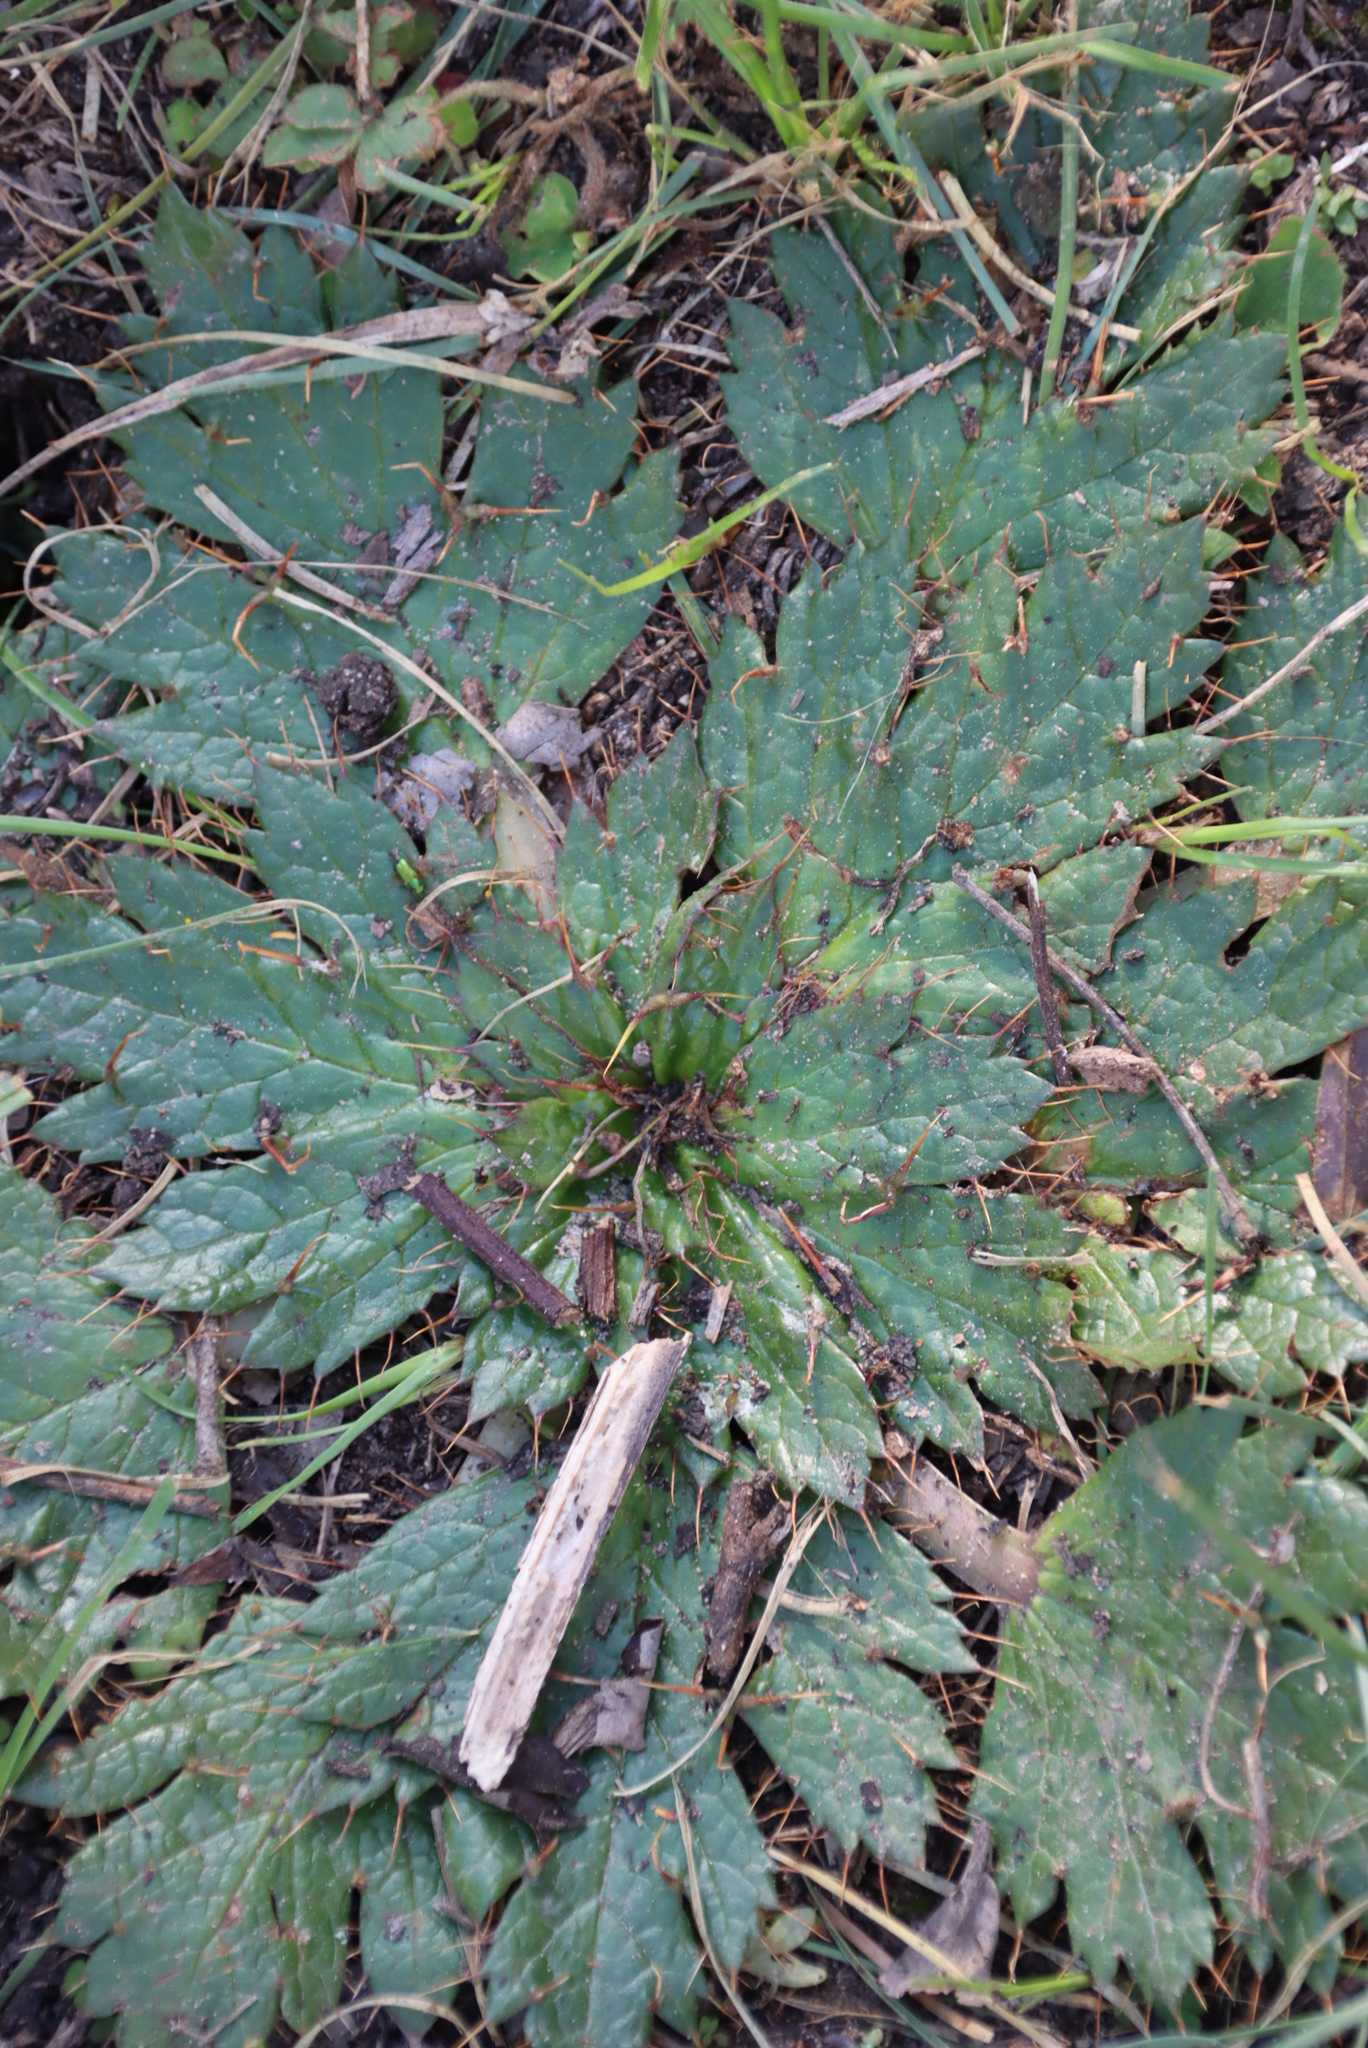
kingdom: Plantae
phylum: Tracheophyta
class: Magnoliopsida
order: Apiales
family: Apiaceae
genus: Arctopus
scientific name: Arctopus echinatus
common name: Platdoring
